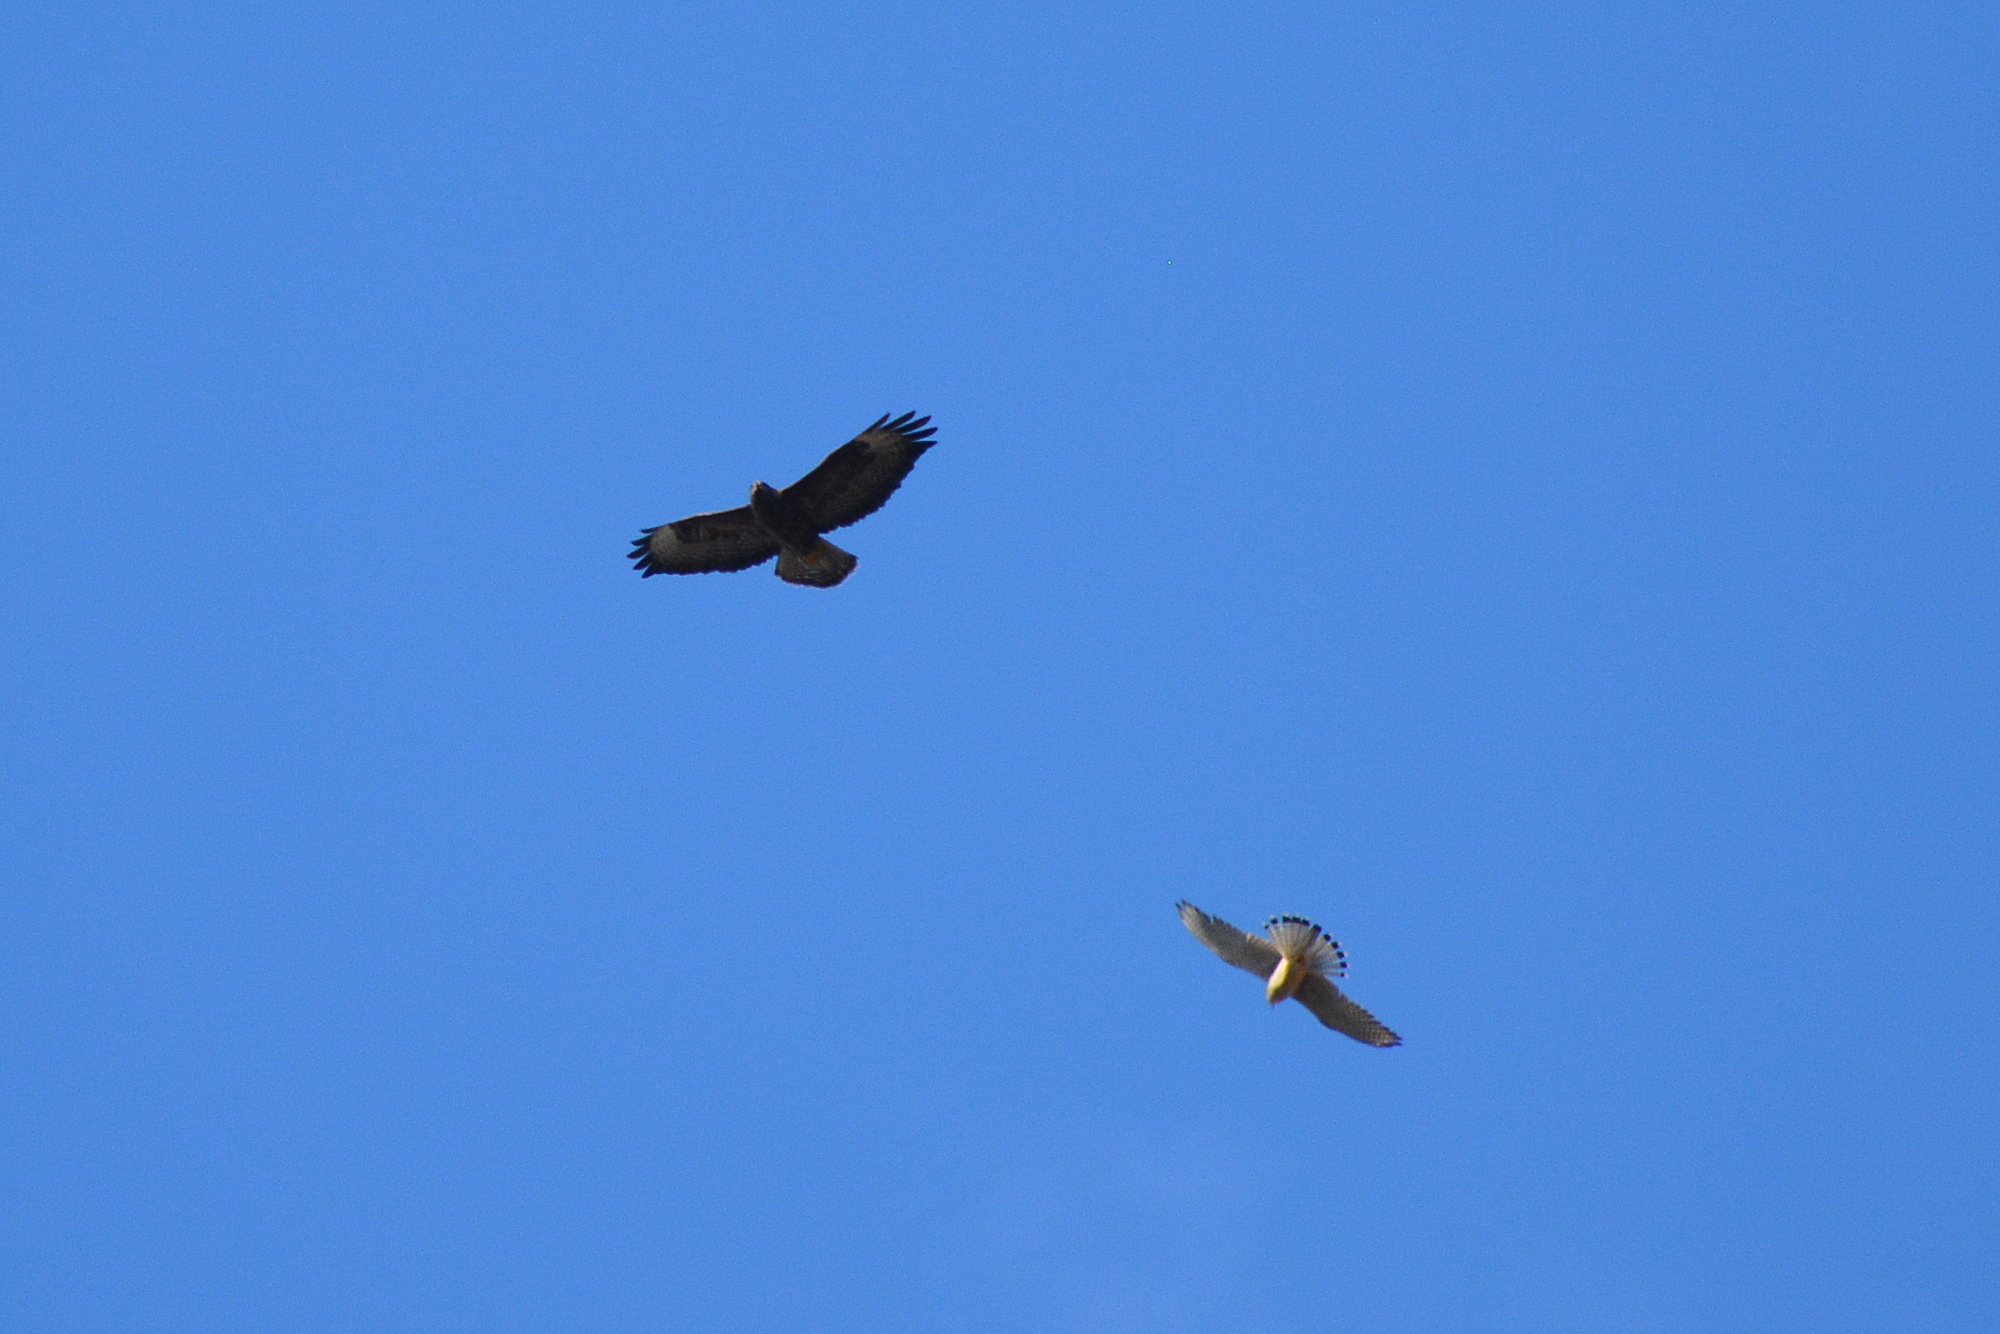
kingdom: Animalia
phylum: Chordata
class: Aves
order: Accipitriformes
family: Accipitridae
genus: Buteo
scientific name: Buteo buteo
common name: Common buzzard
